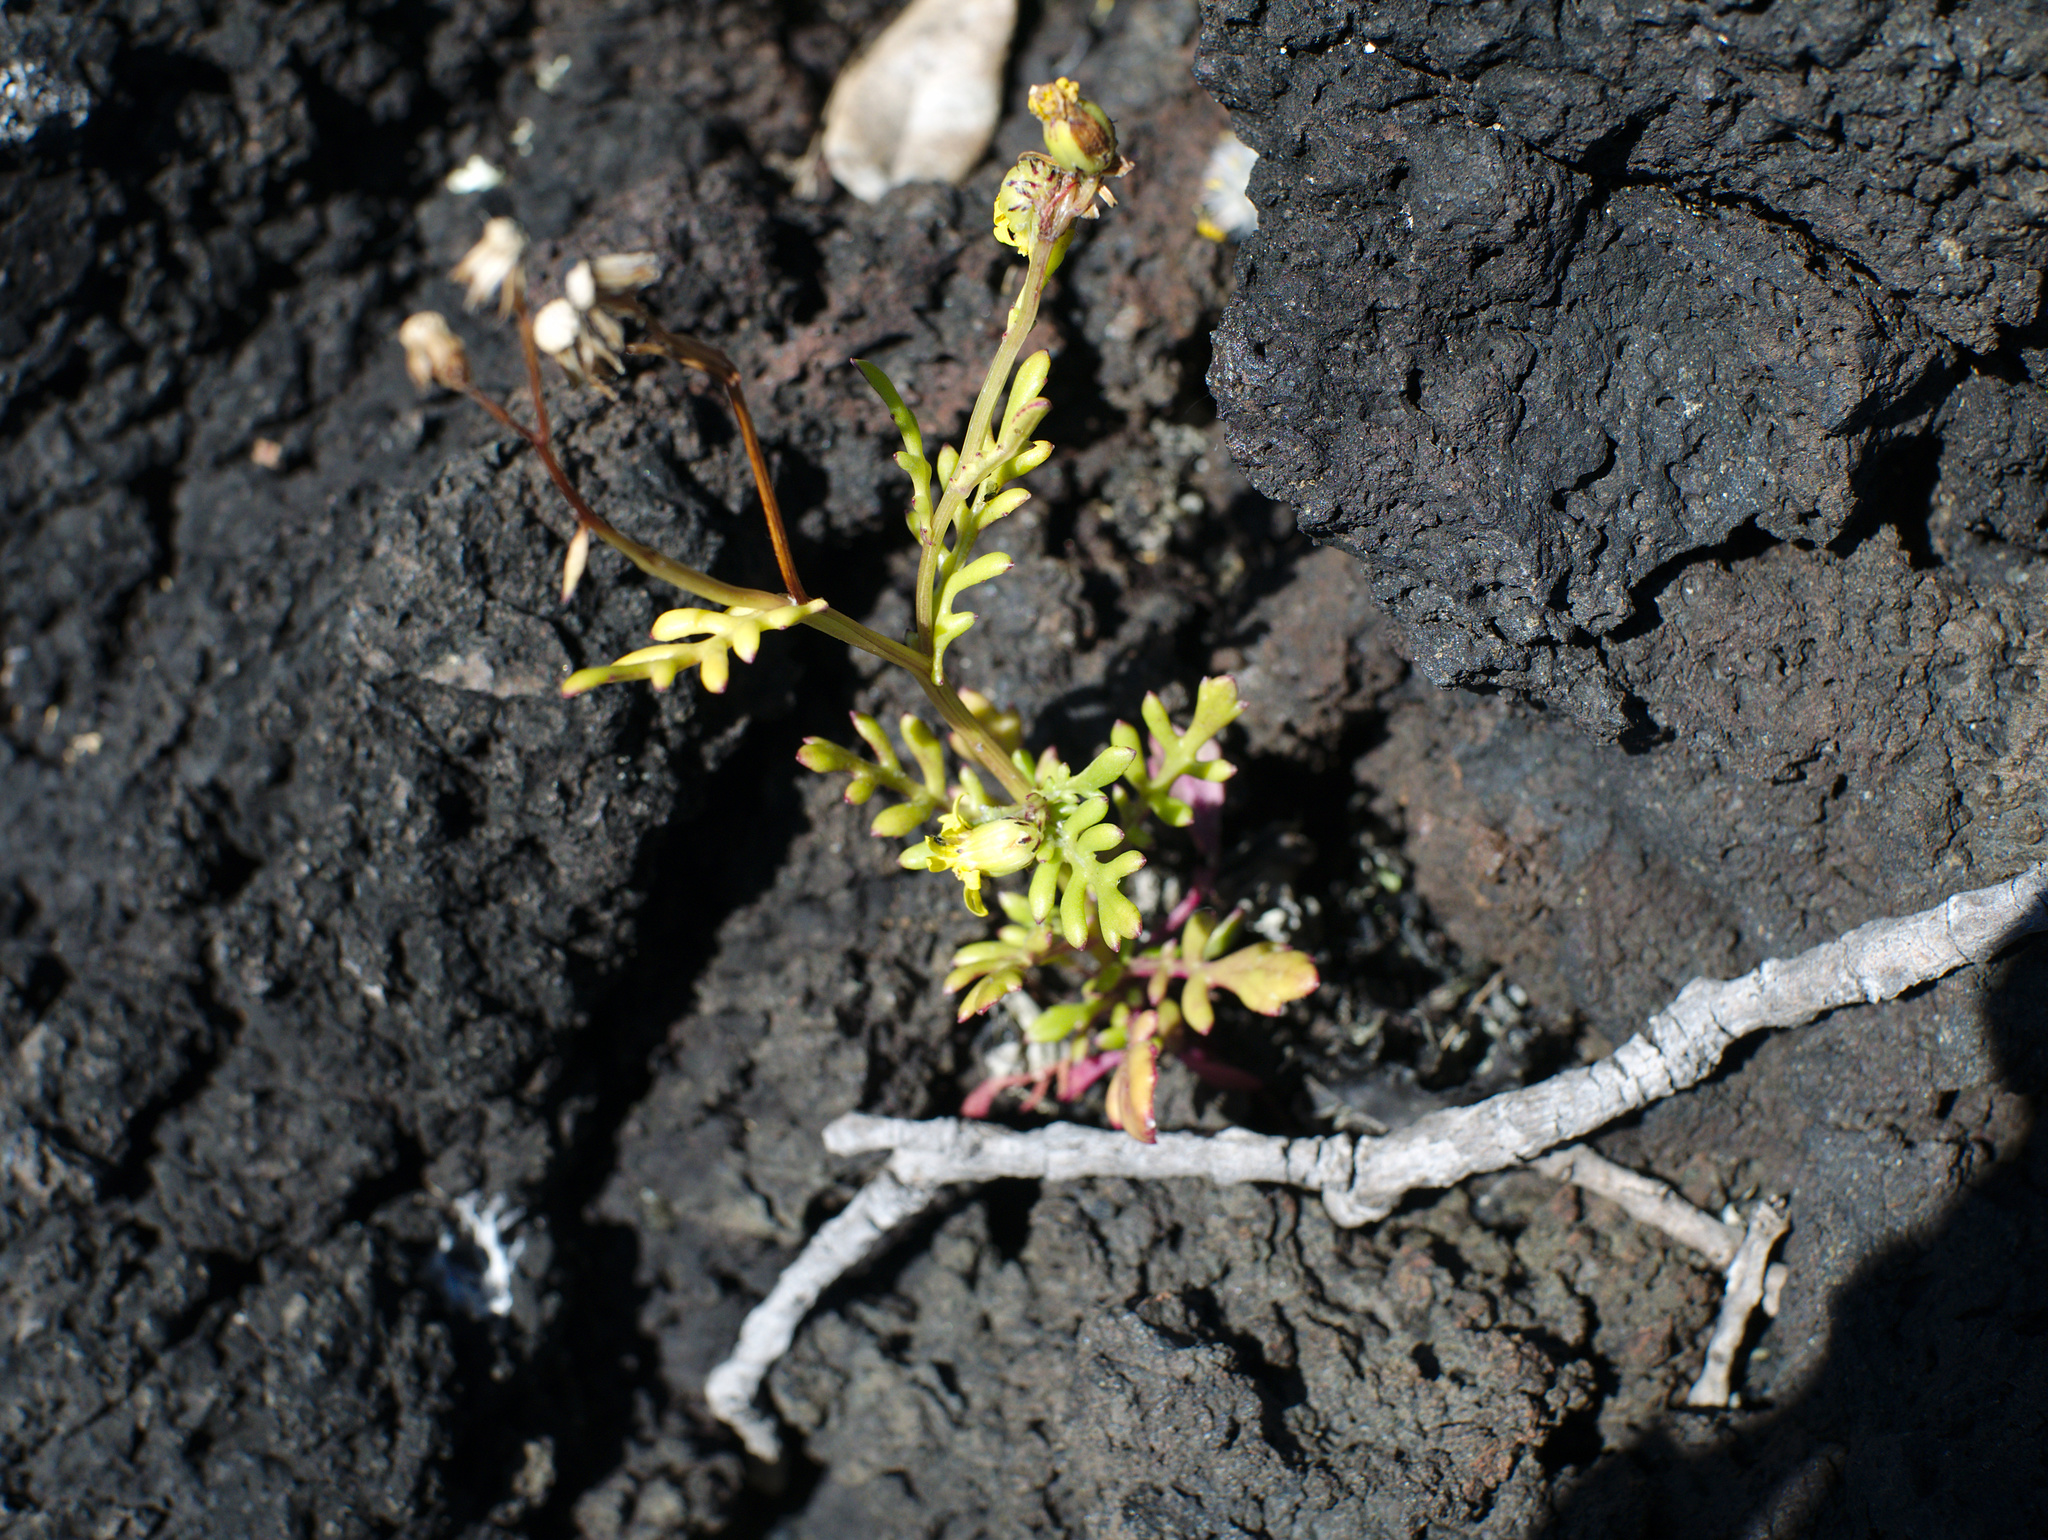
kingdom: Plantae
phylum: Tracheophyta
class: Magnoliopsida
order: Asterales
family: Asteraceae
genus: Senecio
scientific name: Senecio lautus
